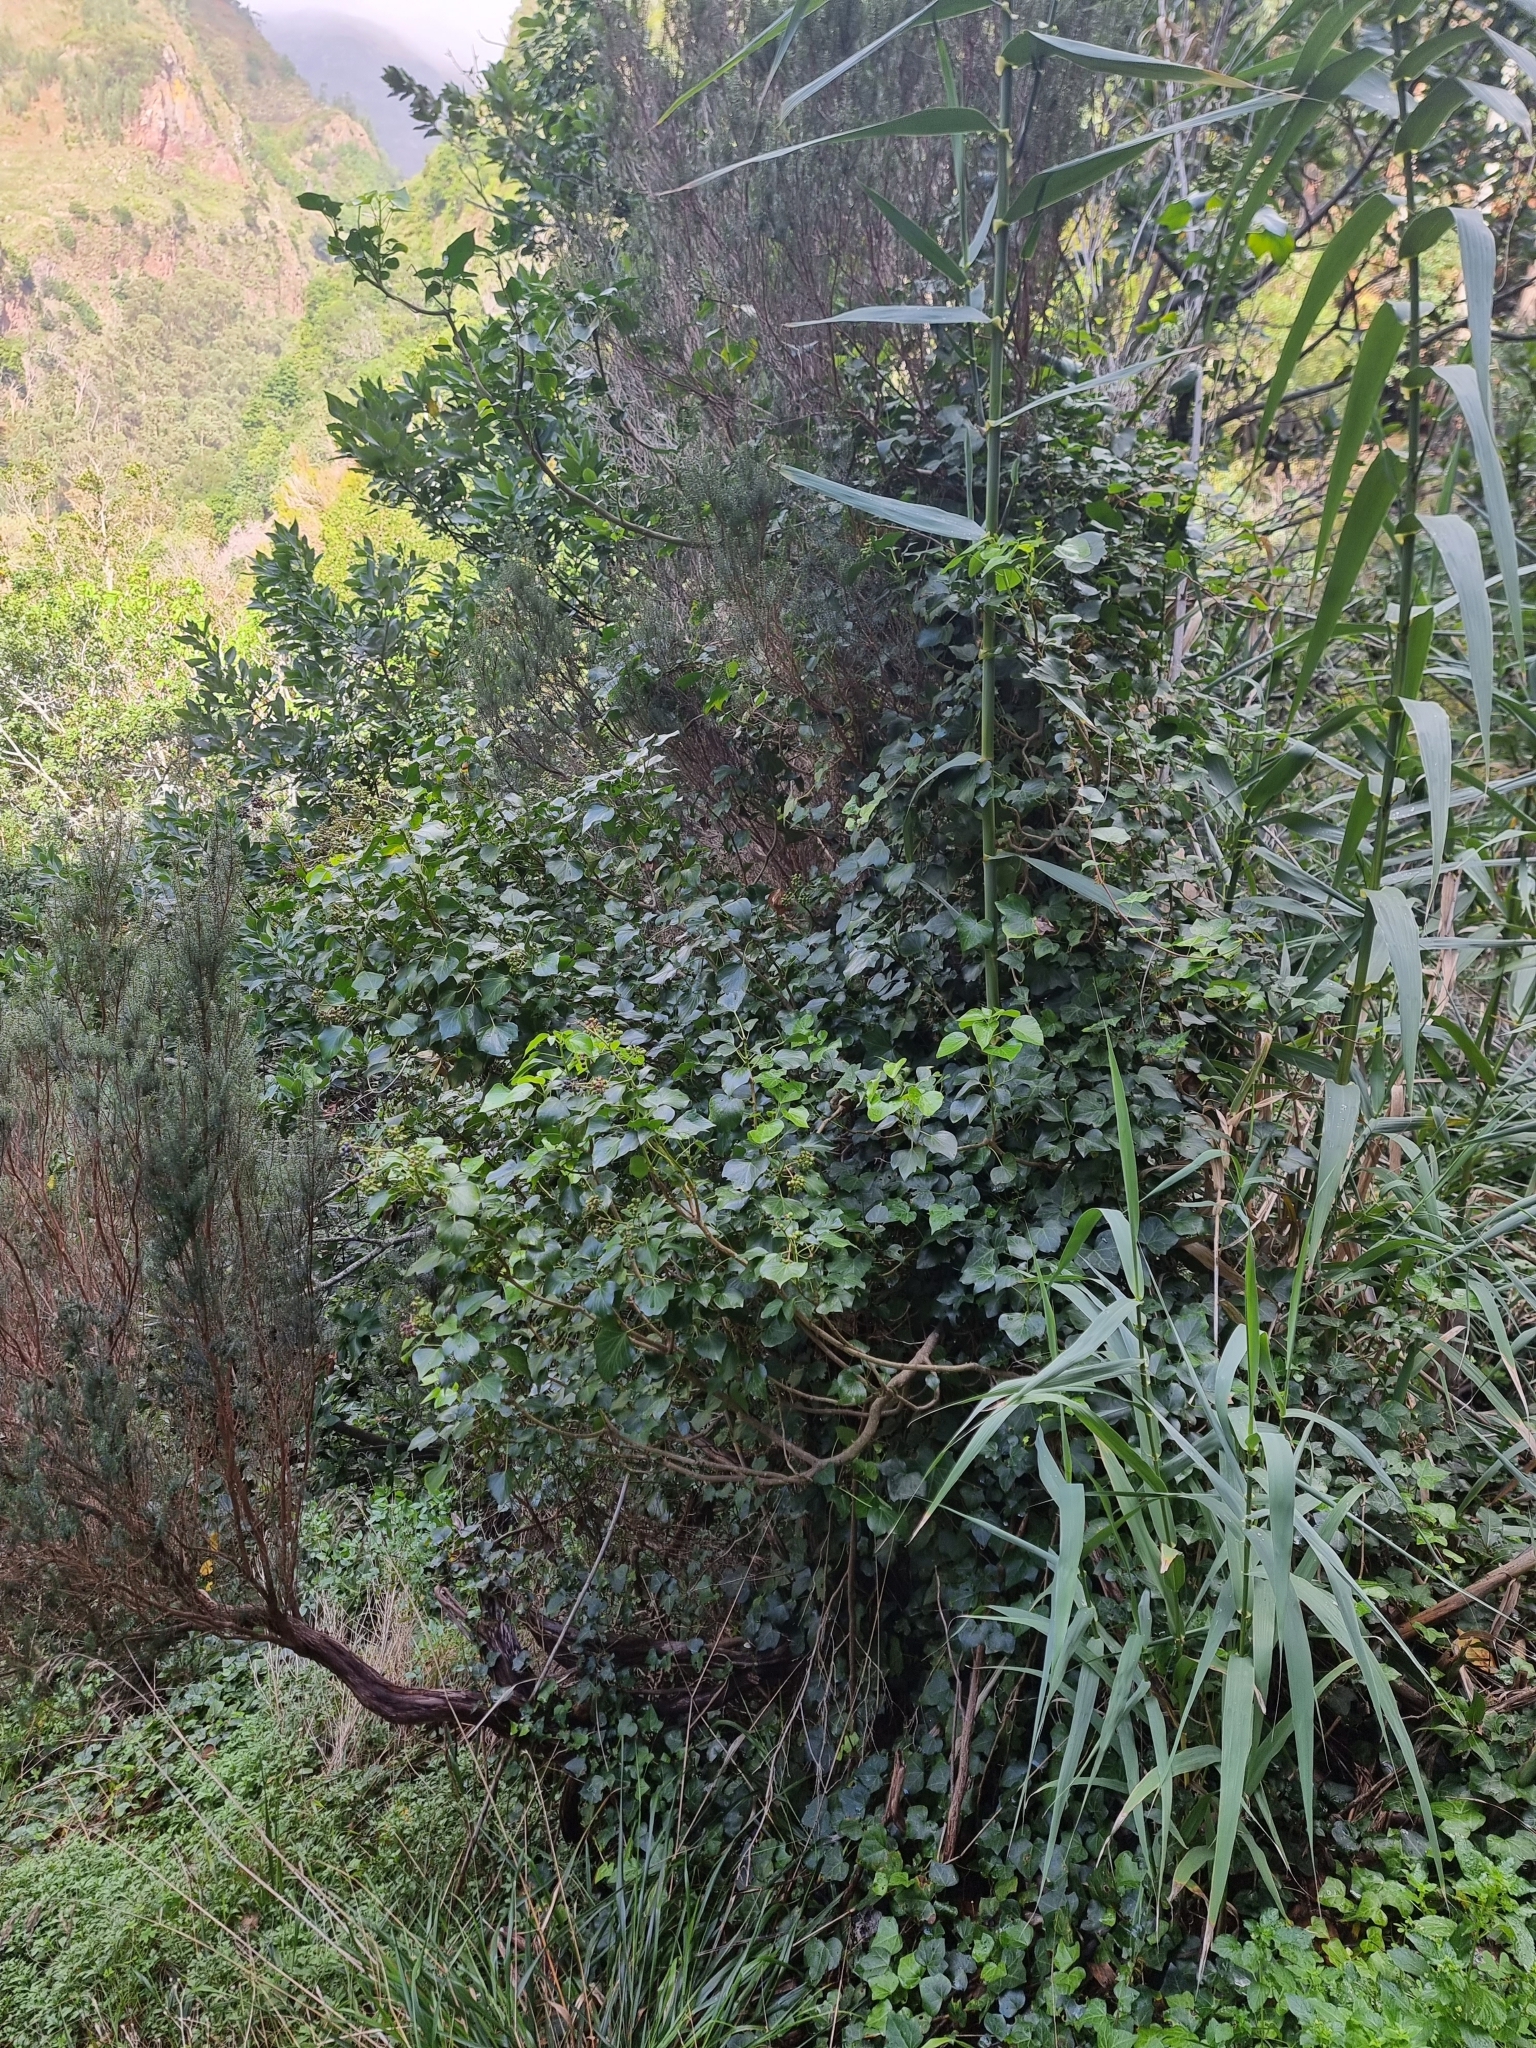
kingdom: Plantae
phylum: Tracheophyta
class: Magnoliopsida
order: Apiales
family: Araliaceae
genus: Hedera
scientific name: Hedera maderensis
